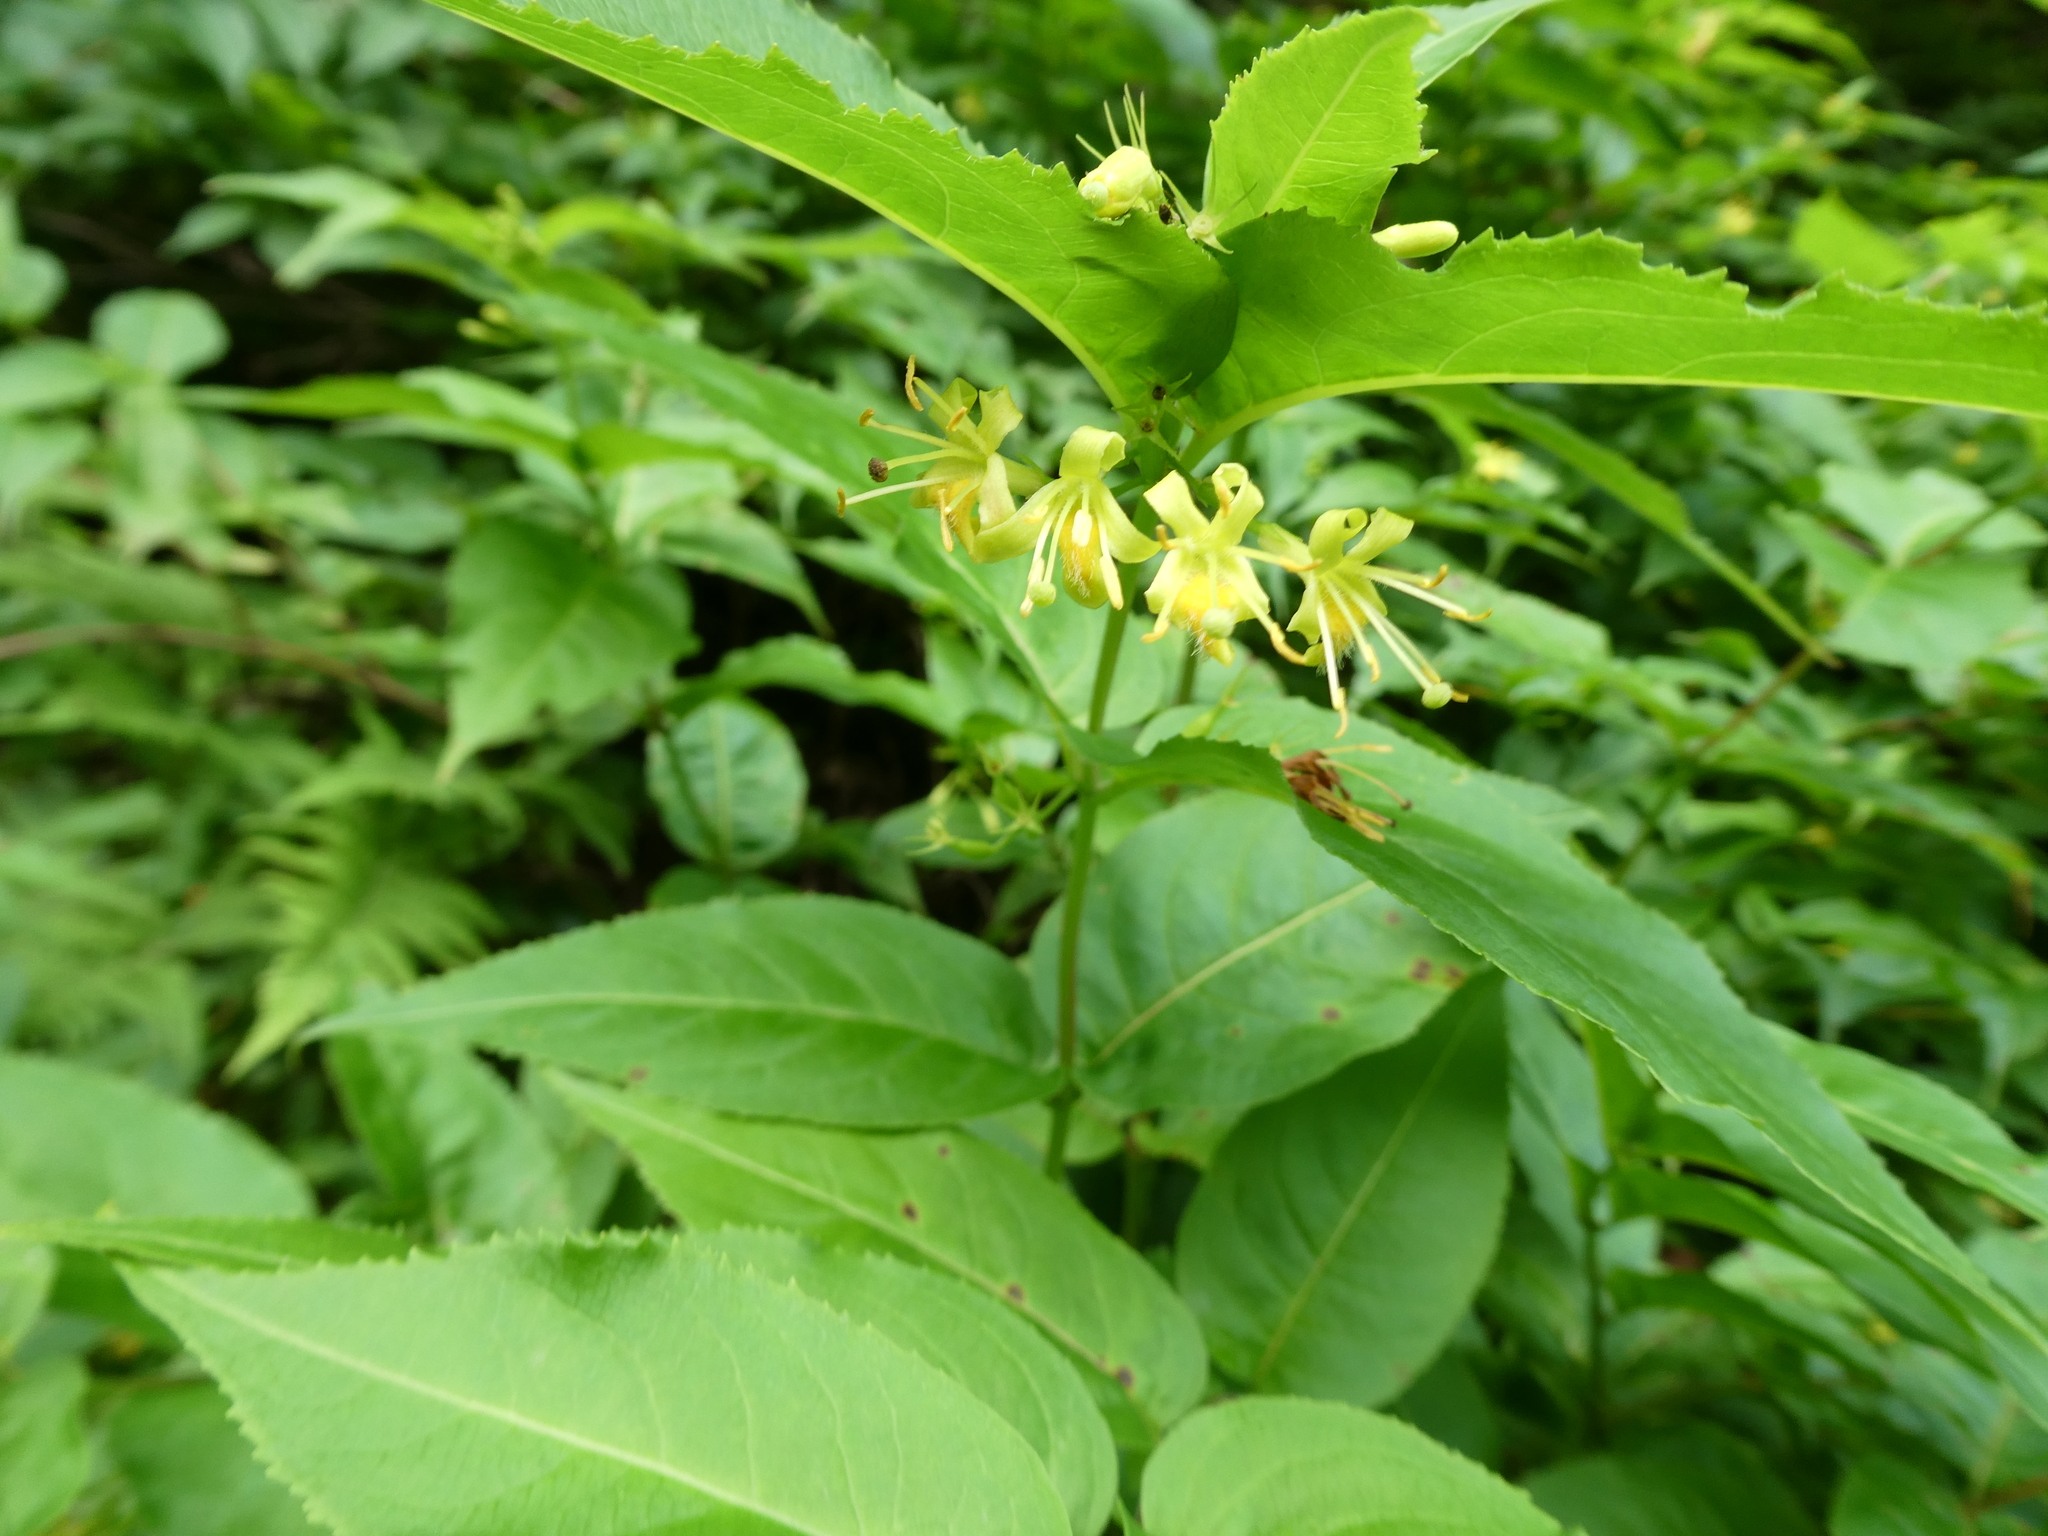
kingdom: Plantae
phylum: Tracheophyta
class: Magnoliopsida
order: Dipsacales
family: Caprifoliaceae
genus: Diervilla
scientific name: Diervilla lonicera
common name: Bush-honeysuckle
